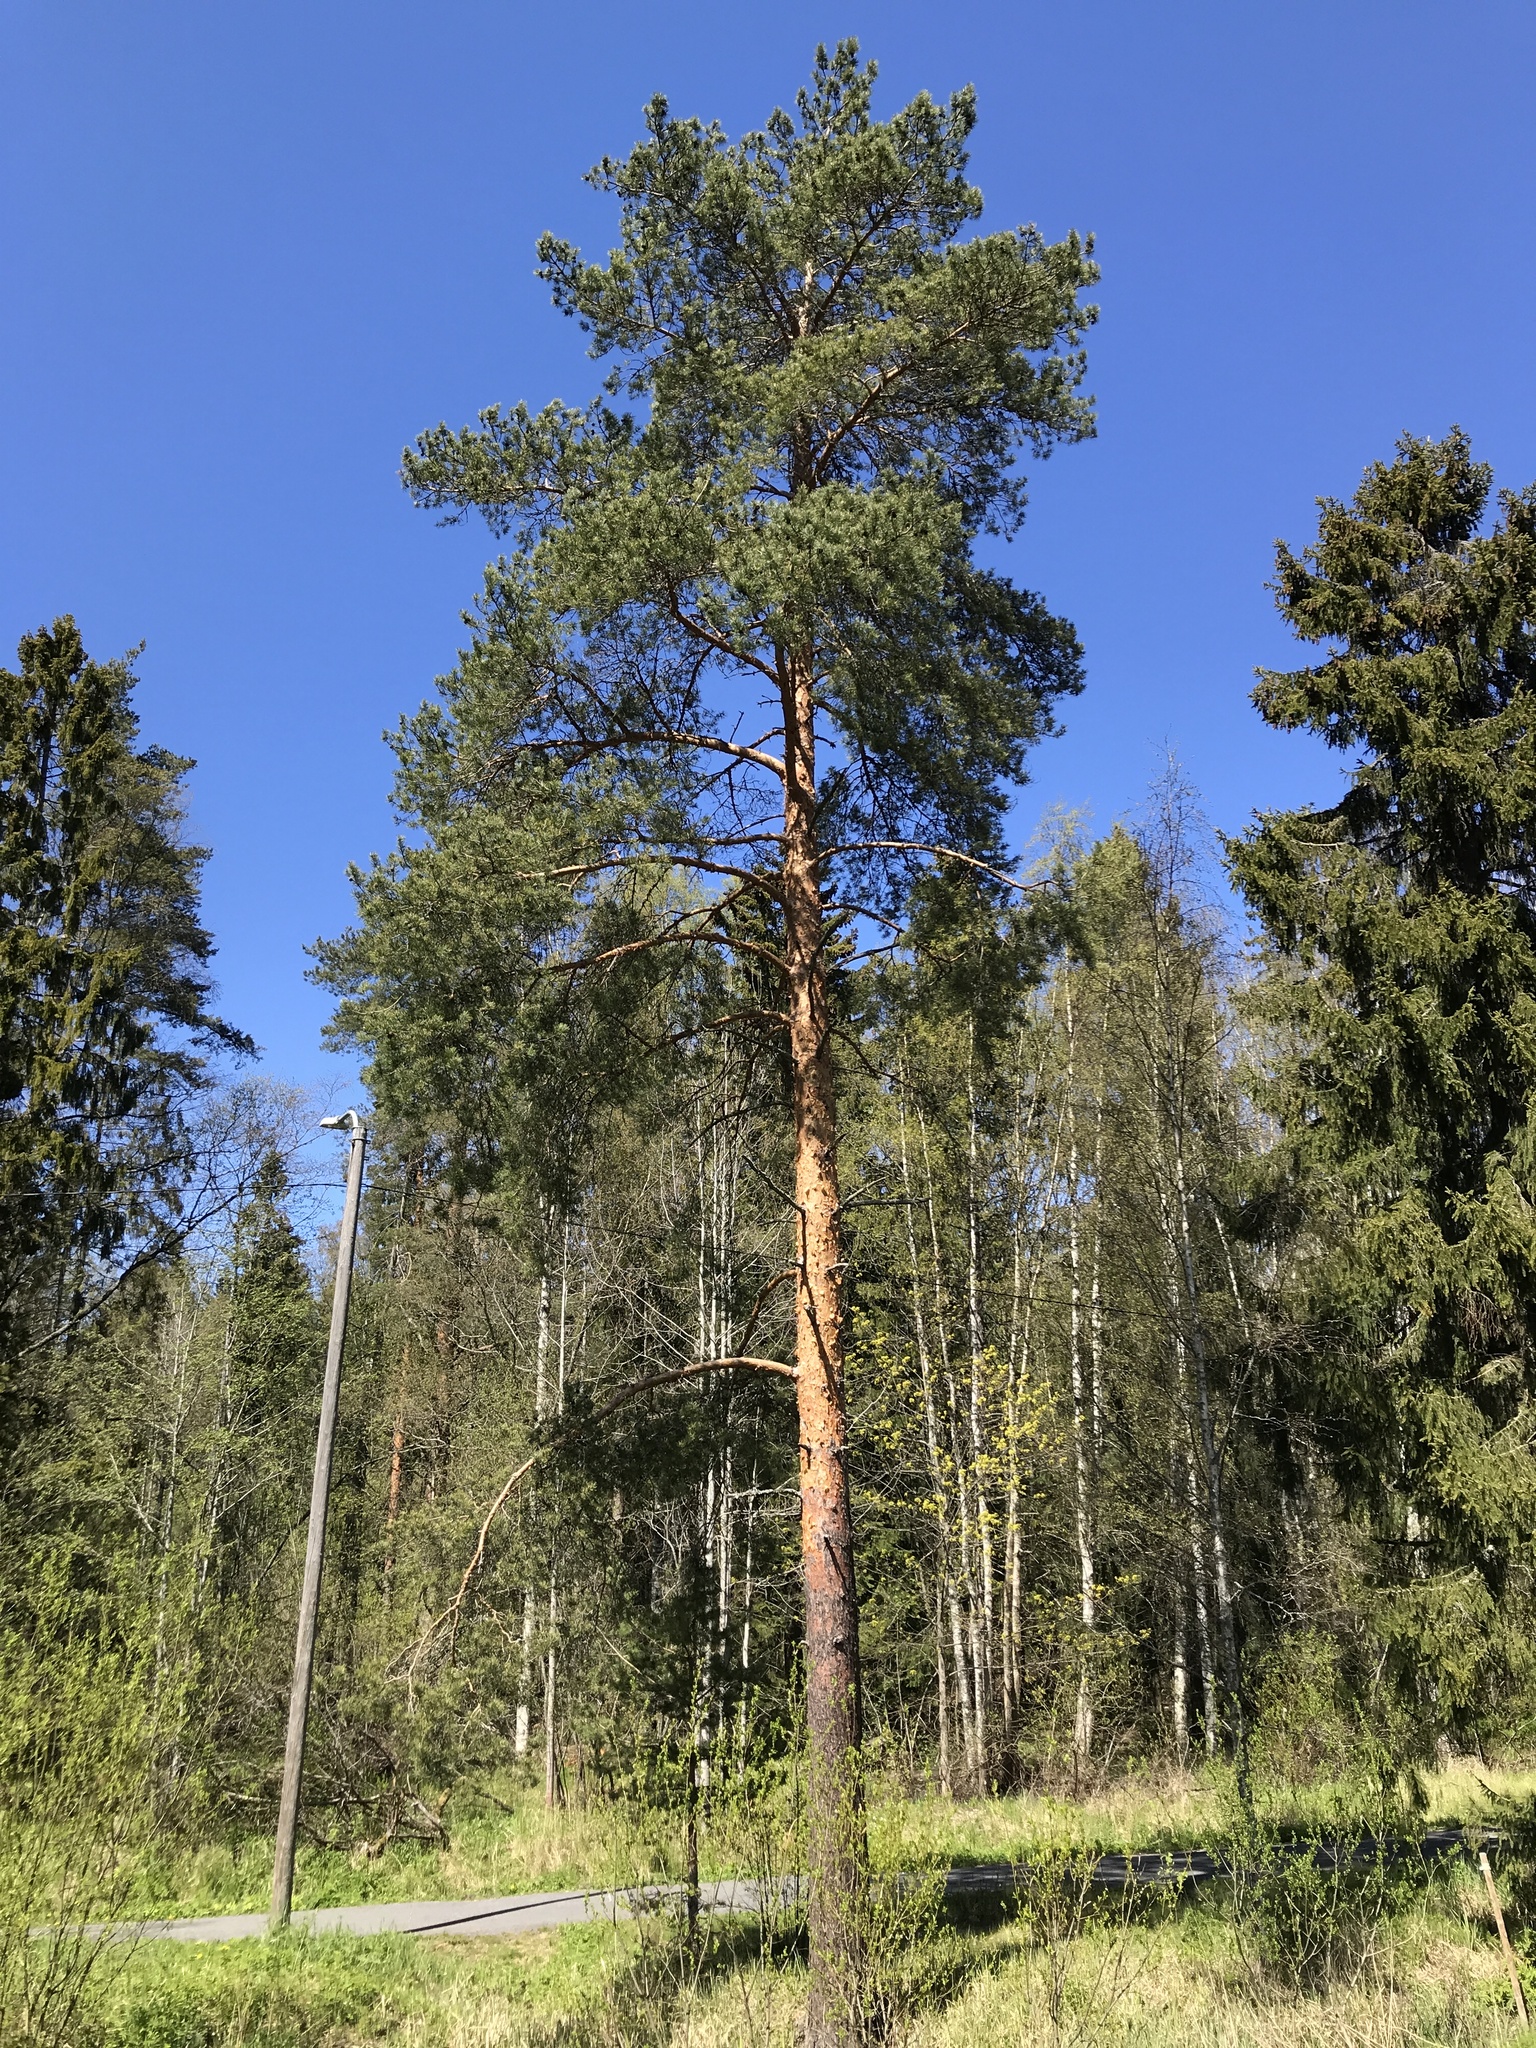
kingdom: Plantae
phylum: Tracheophyta
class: Pinopsida
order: Pinales
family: Pinaceae
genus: Pinus
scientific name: Pinus sylvestris
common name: Scots pine
